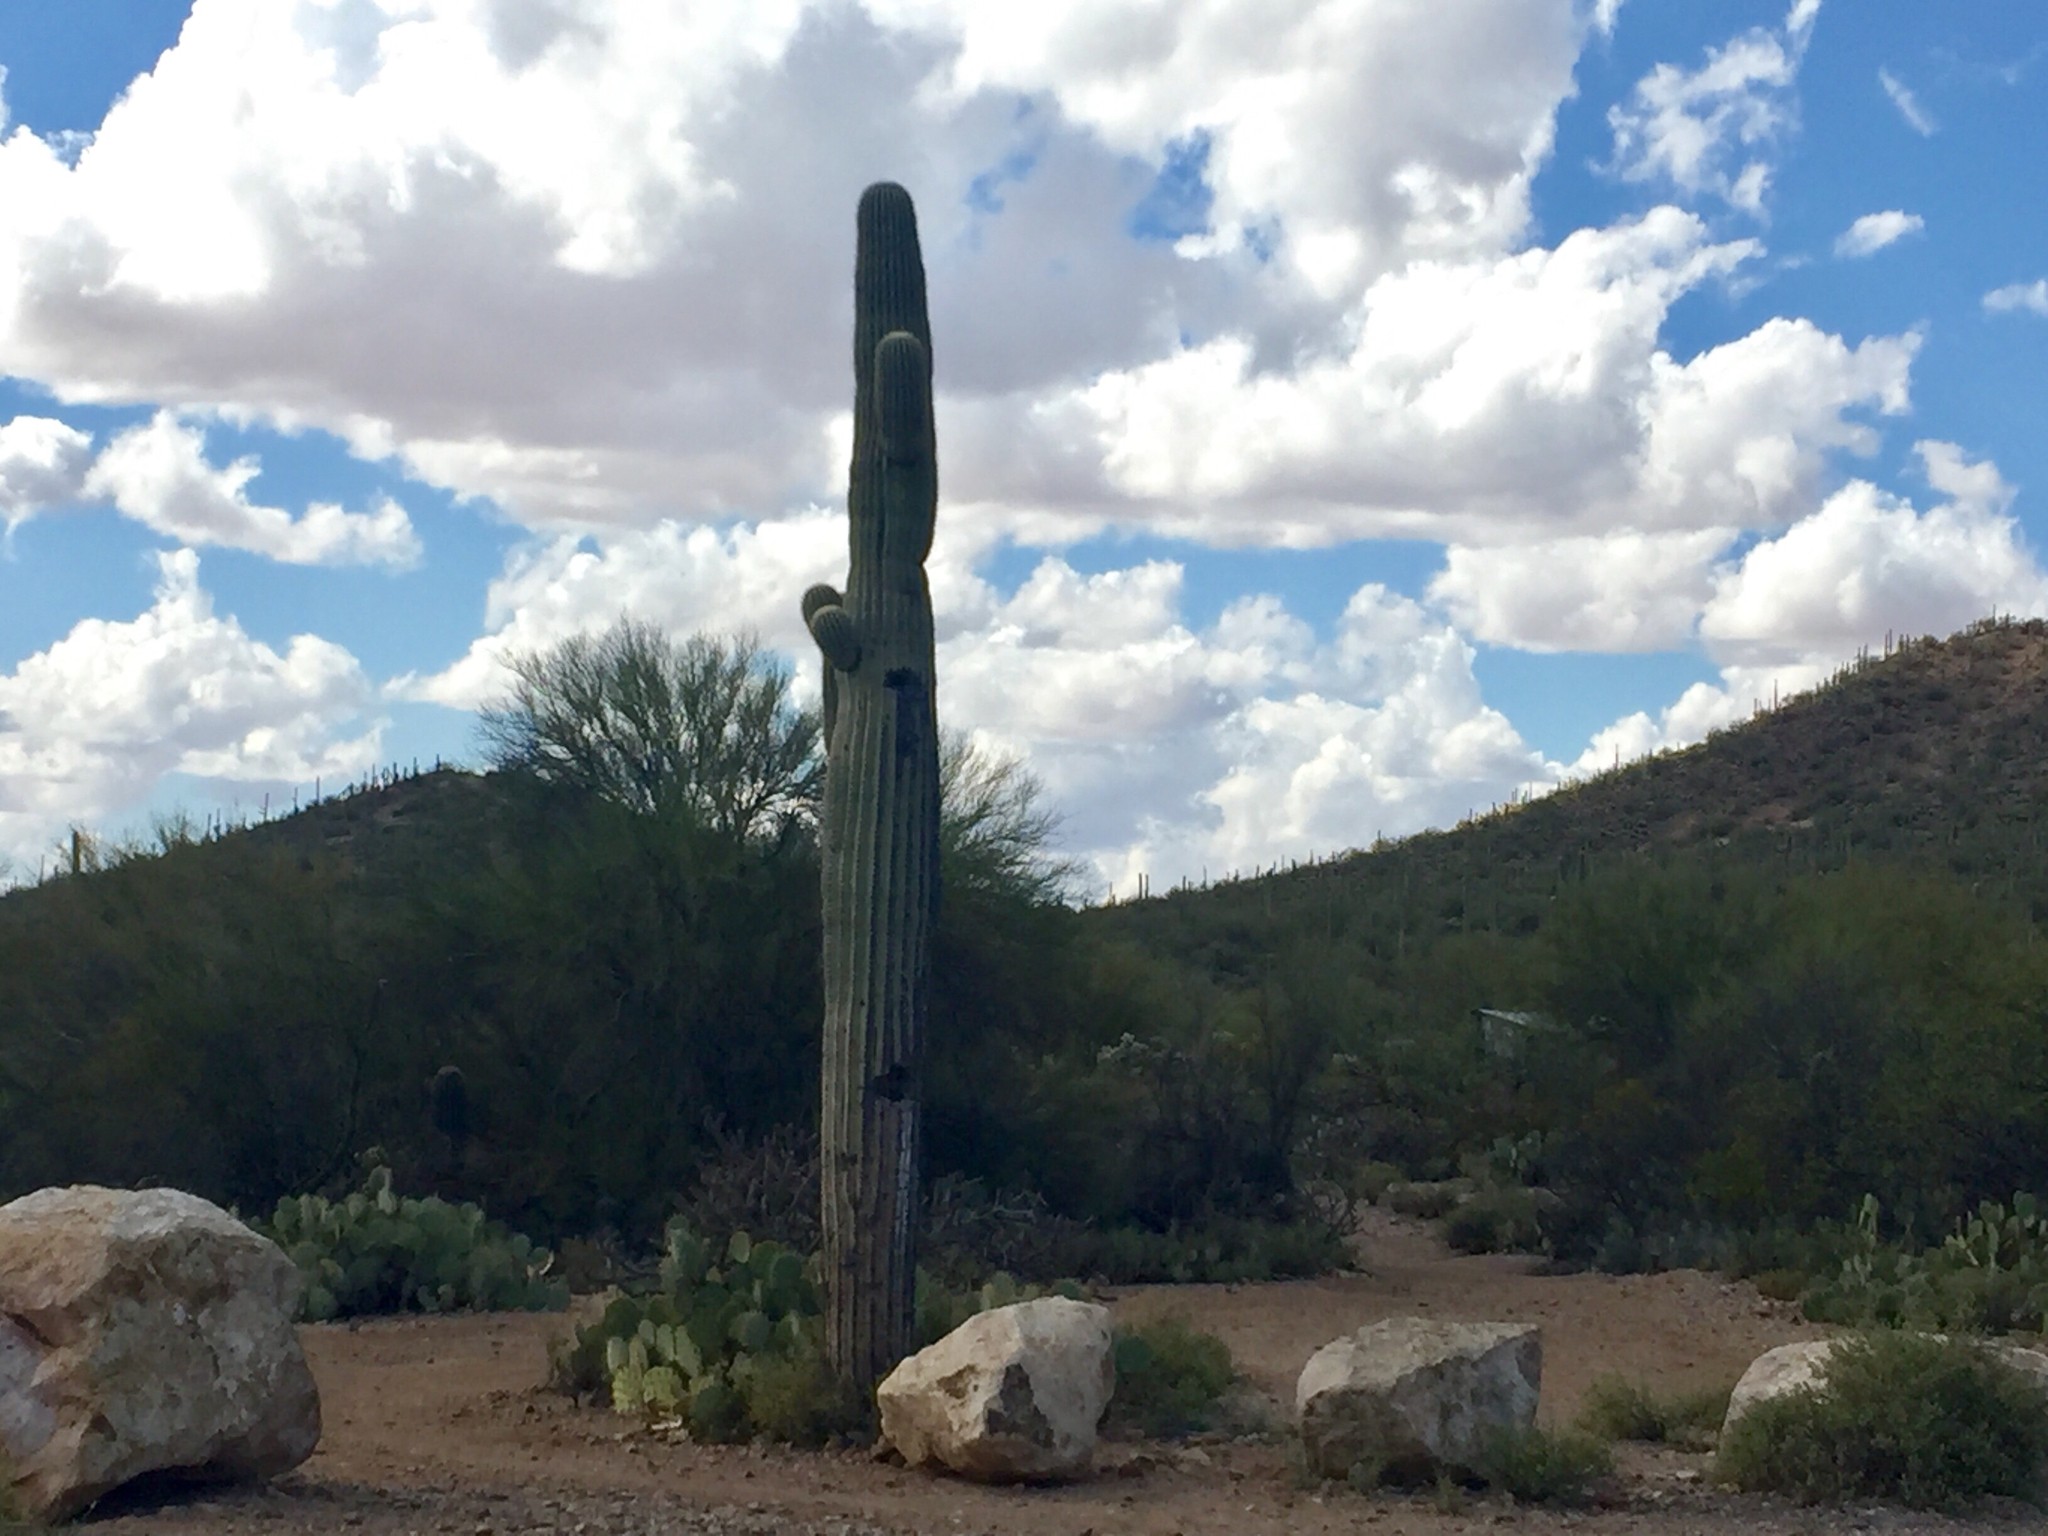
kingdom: Plantae
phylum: Tracheophyta
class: Magnoliopsida
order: Caryophyllales
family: Cactaceae
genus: Carnegiea
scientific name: Carnegiea gigantea
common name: Saguaro
